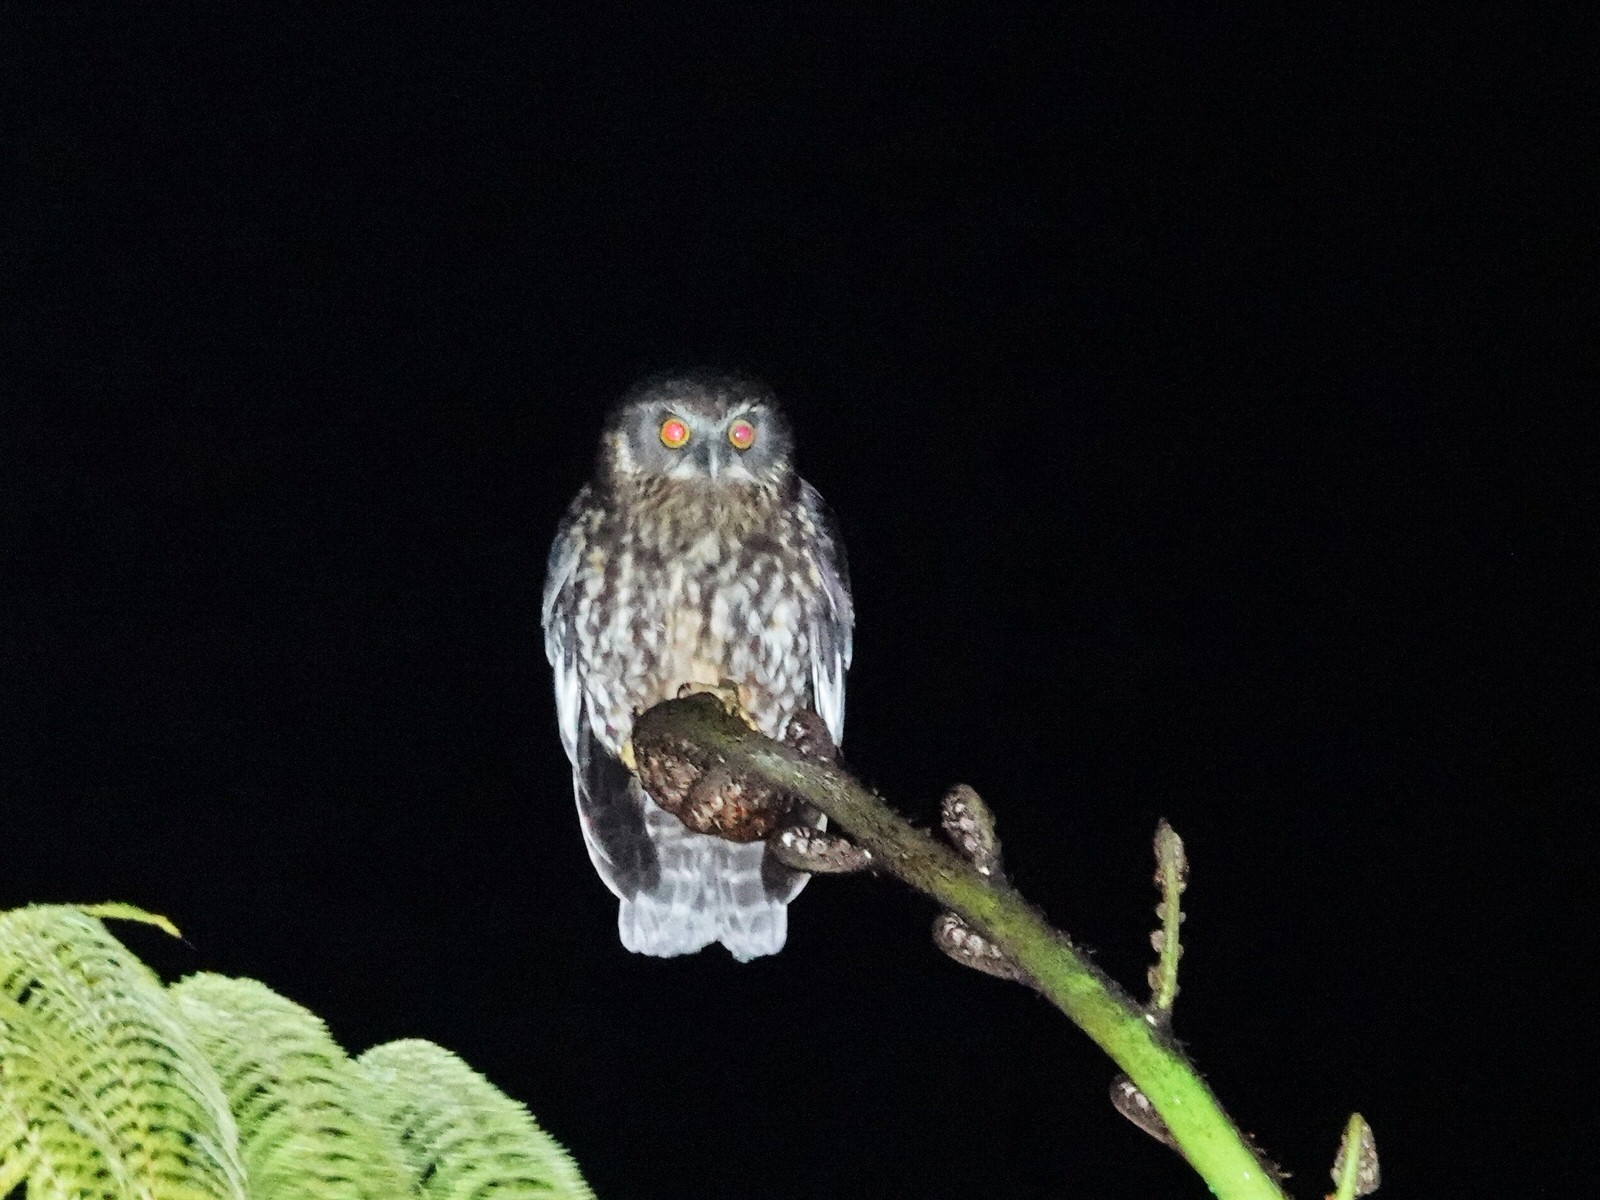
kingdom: Animalia
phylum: Chordata
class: Aves
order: Strigiformes
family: Strigidae
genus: Ninox
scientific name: Ninox novaeseelandiae
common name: Morepork
